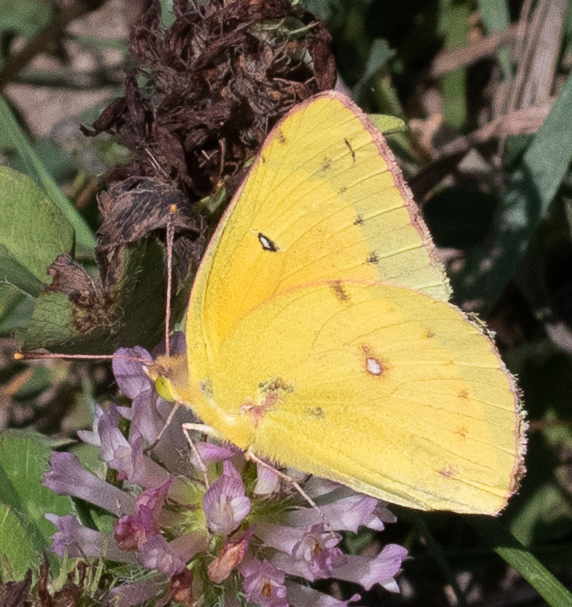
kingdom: Animalia
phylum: Arthropoda
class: Insecta
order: Lepidoptera
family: Pieridae
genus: Colias
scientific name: Colias eurytheme
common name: Alfalfa butterfly
